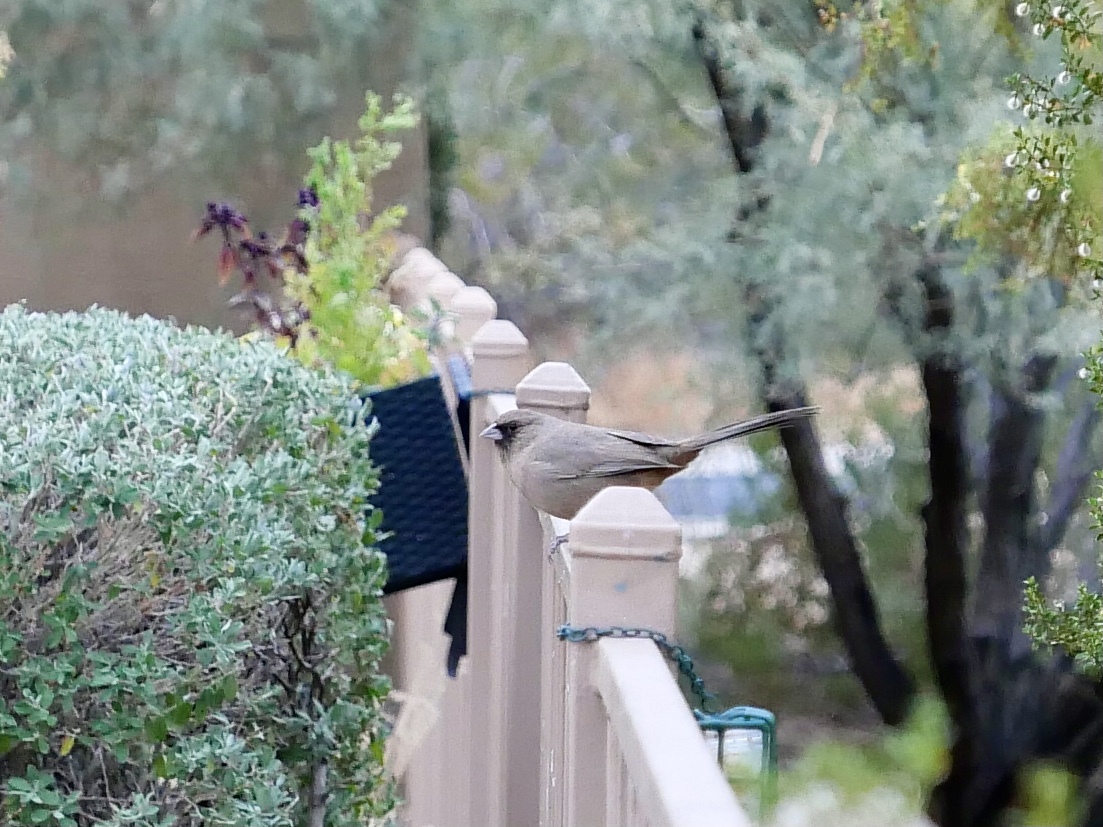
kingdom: Animalia
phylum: Chordata
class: Aves
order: Passeriformes
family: Passerellidae
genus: Melozone
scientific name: Melozone aberti
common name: Abert's towhee
